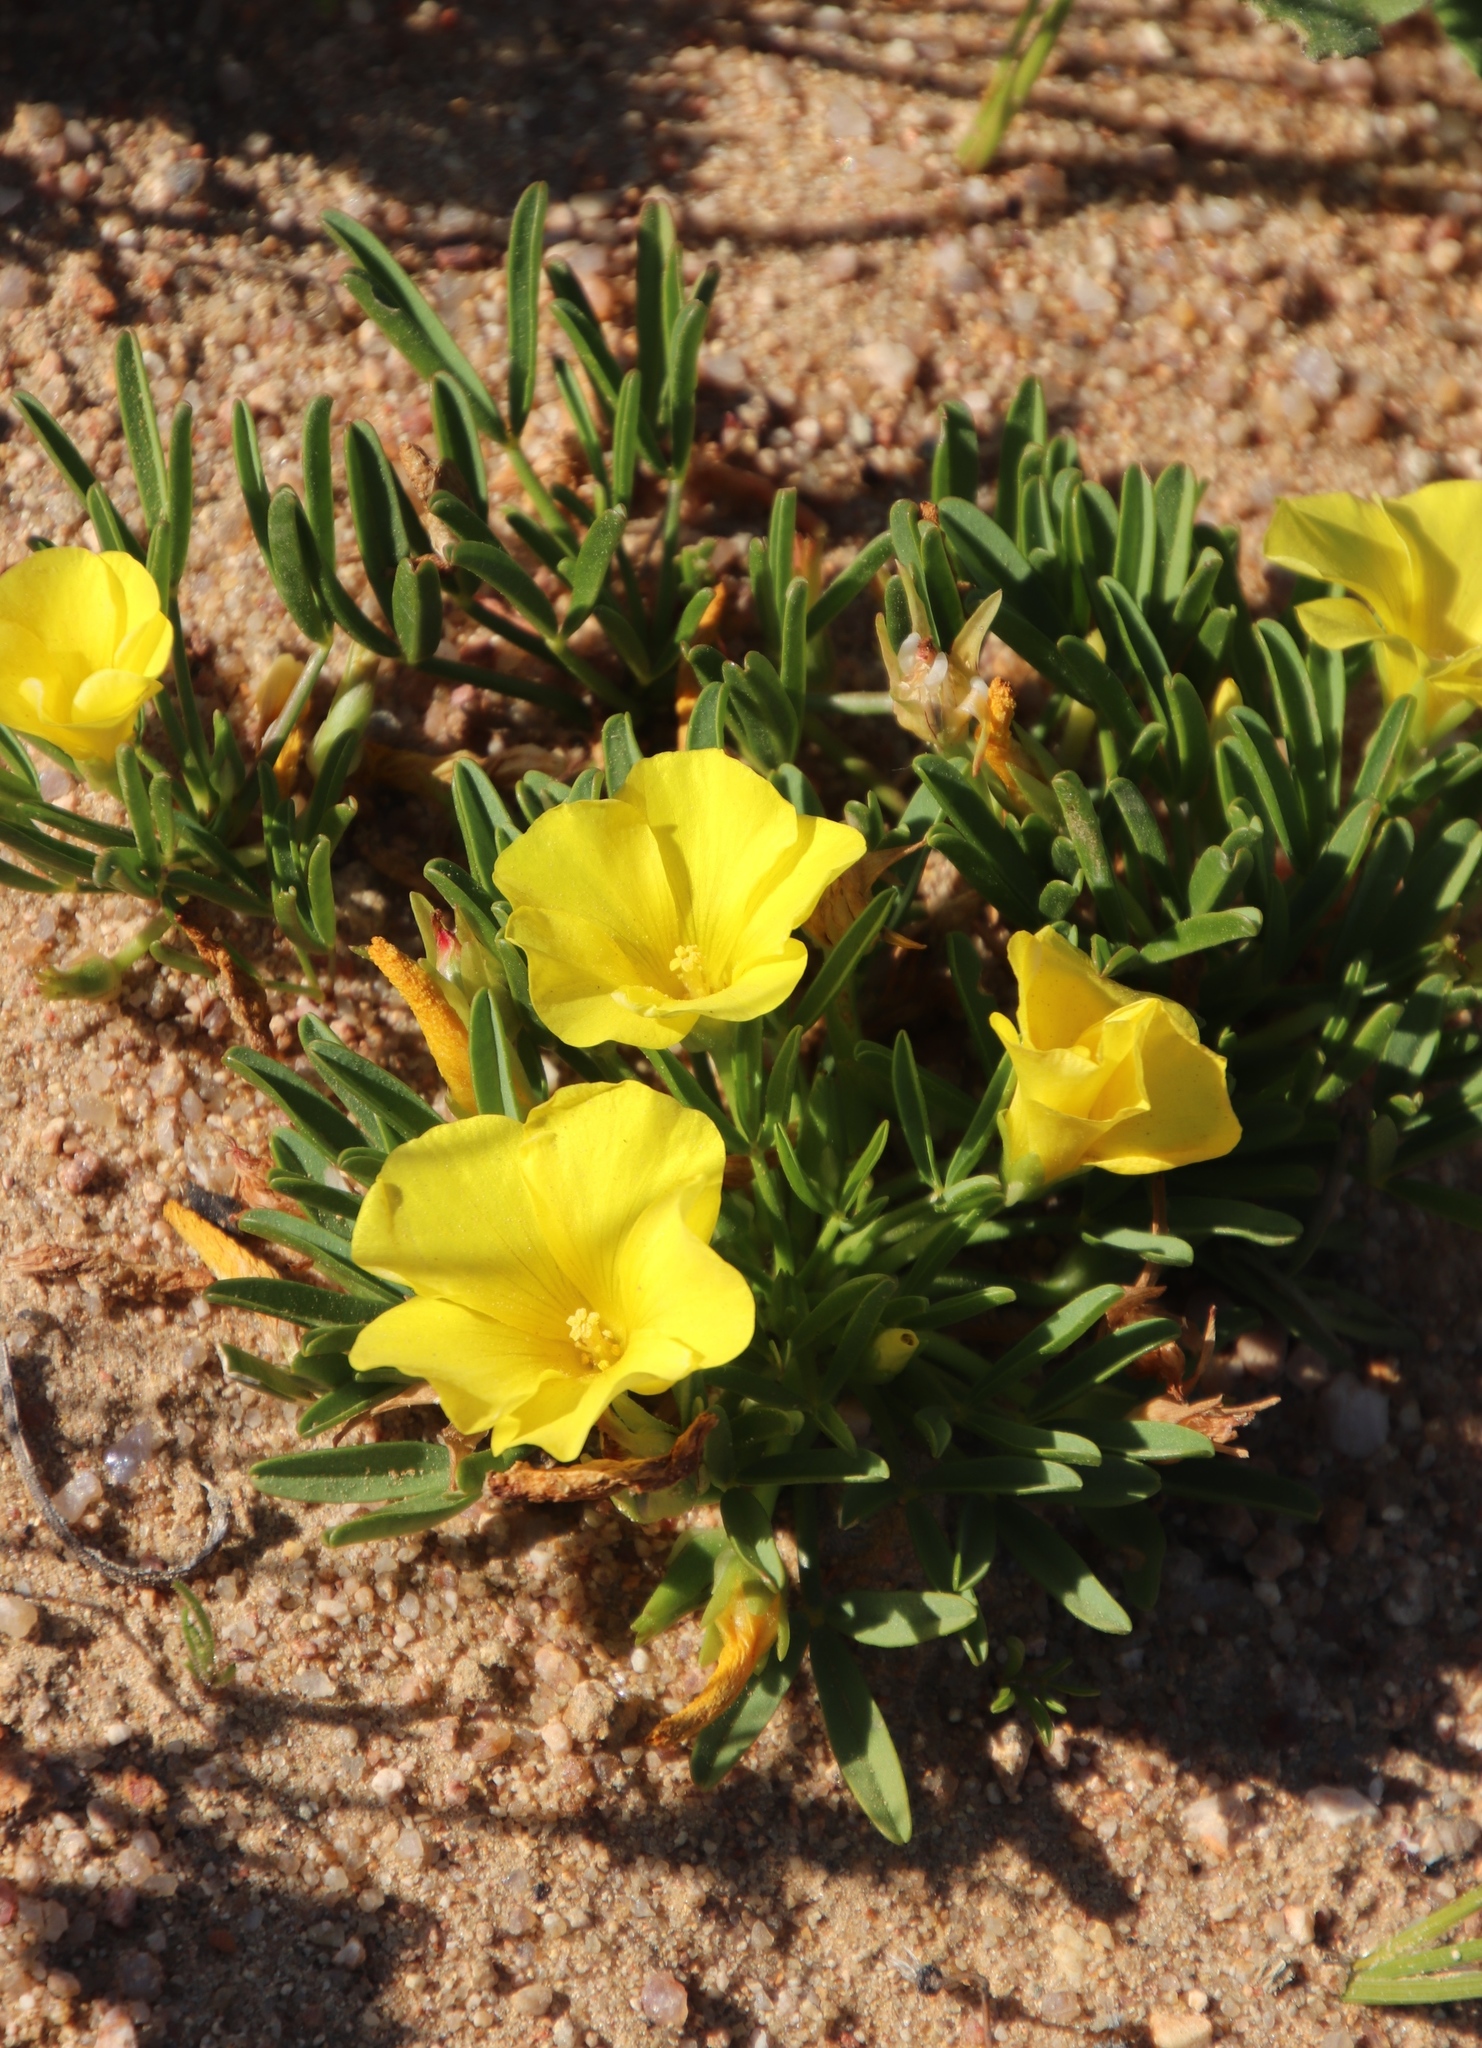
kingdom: Plantae
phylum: Tracheophyta
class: Magnoliopsida
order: Oxalidales
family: Oxalidaceae
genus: Oxalis
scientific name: Oxalis namaquana
